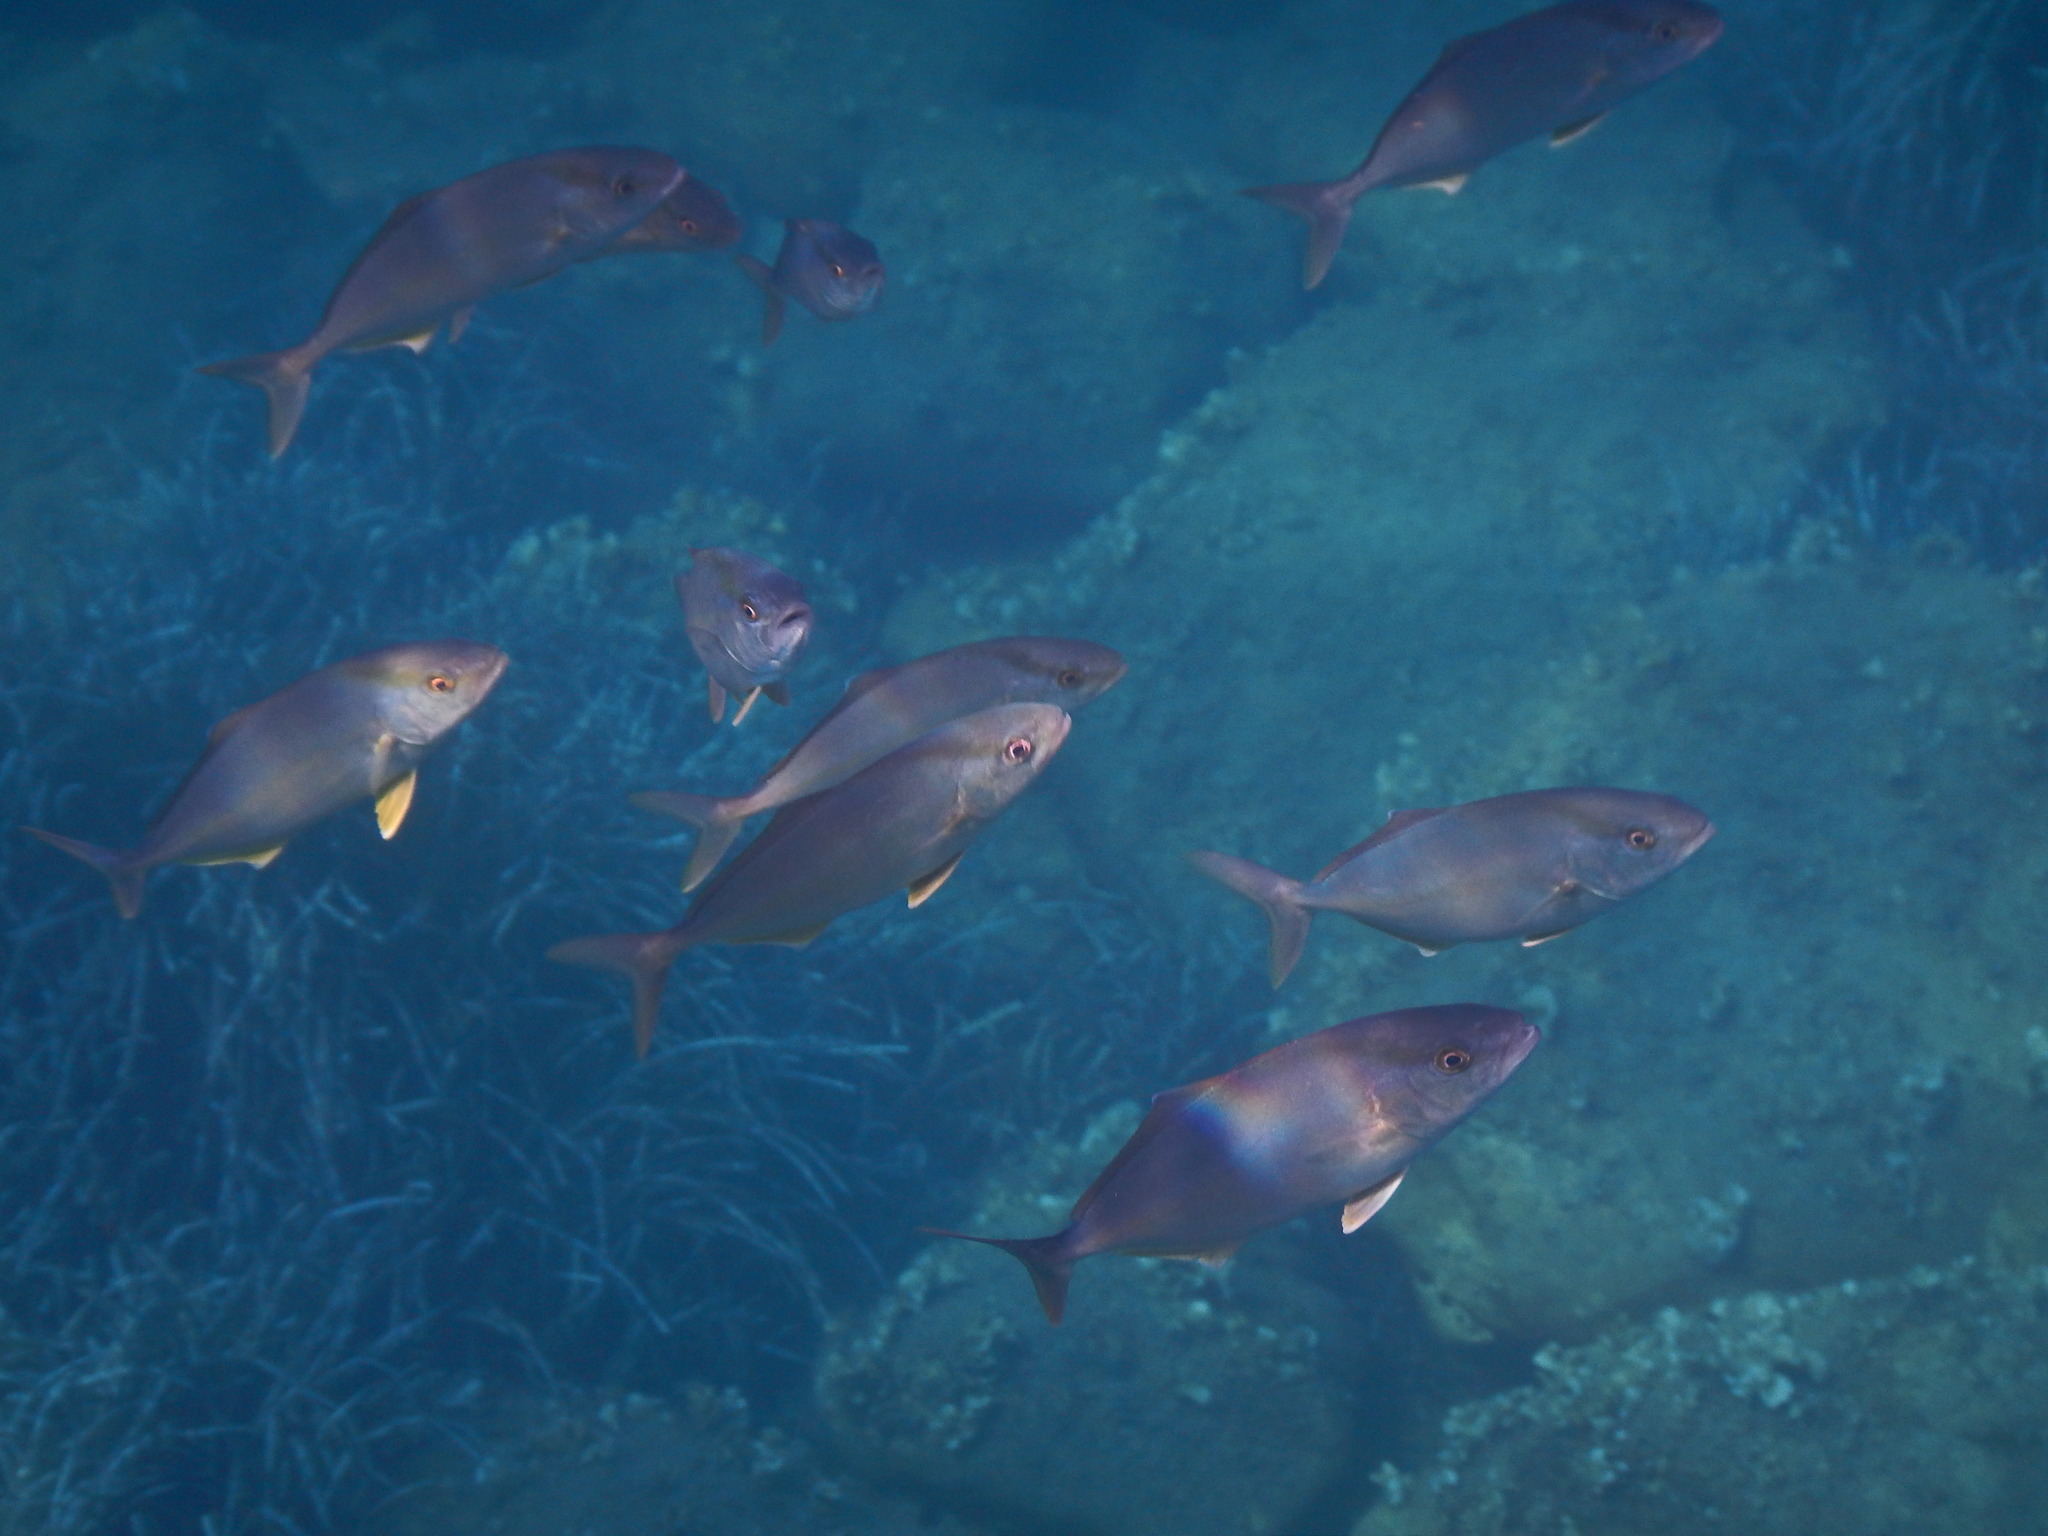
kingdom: Animalia
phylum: Chordata
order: Perciformes
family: Carangidae
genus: Seriola
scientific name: Seriola dumerili
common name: Greater amberjack
